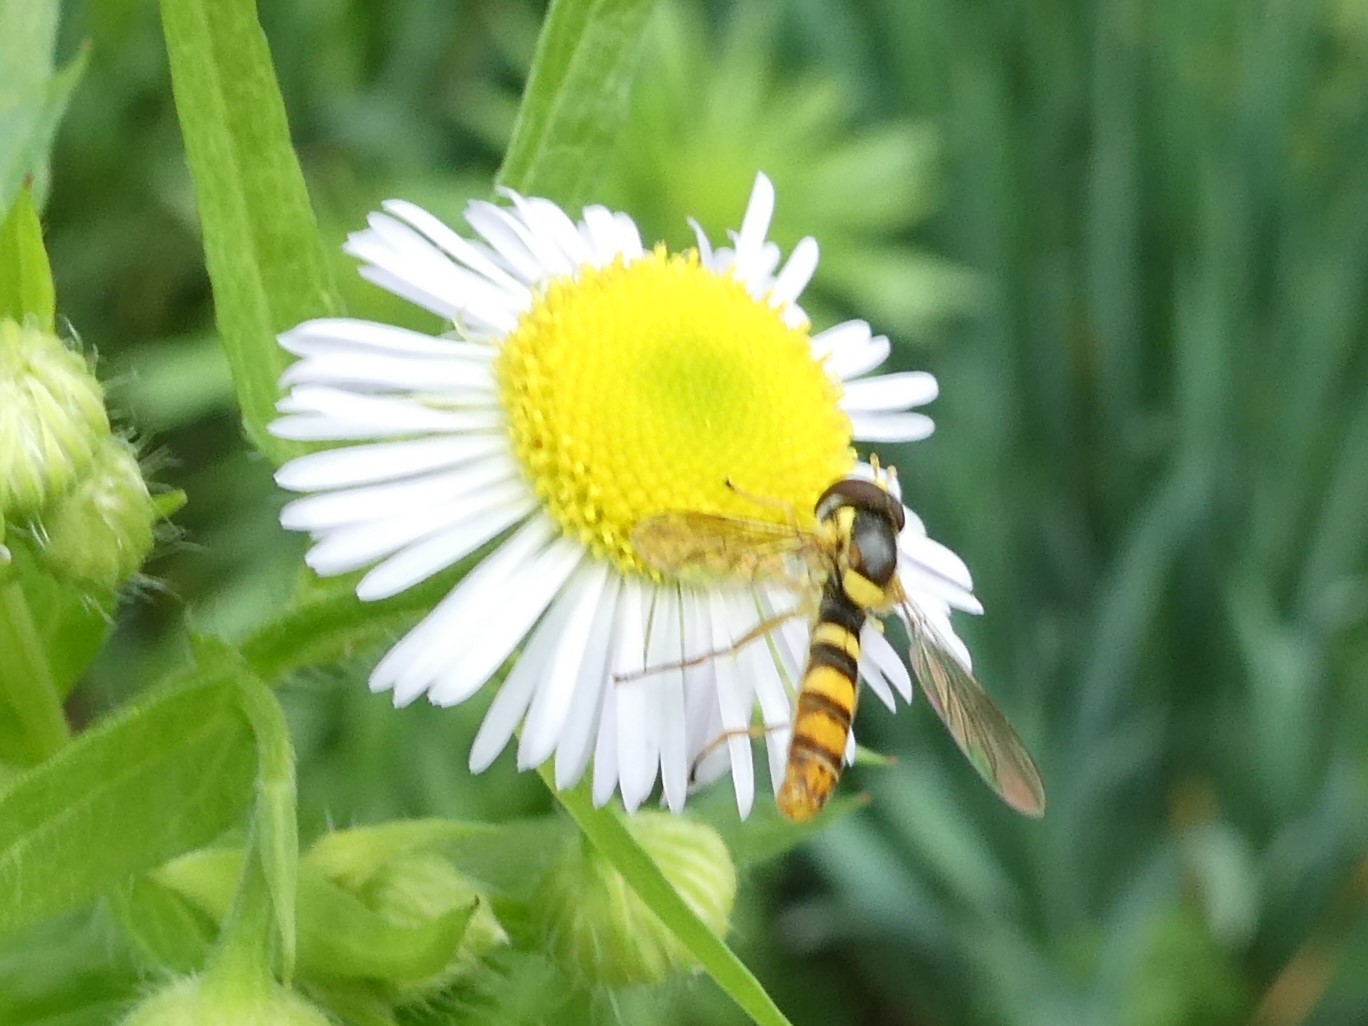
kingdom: Animalia
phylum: Arthropoda
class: Insecta
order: Diptera
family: Syrphidae
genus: Sphaerophoria
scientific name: Sphaerophoria
